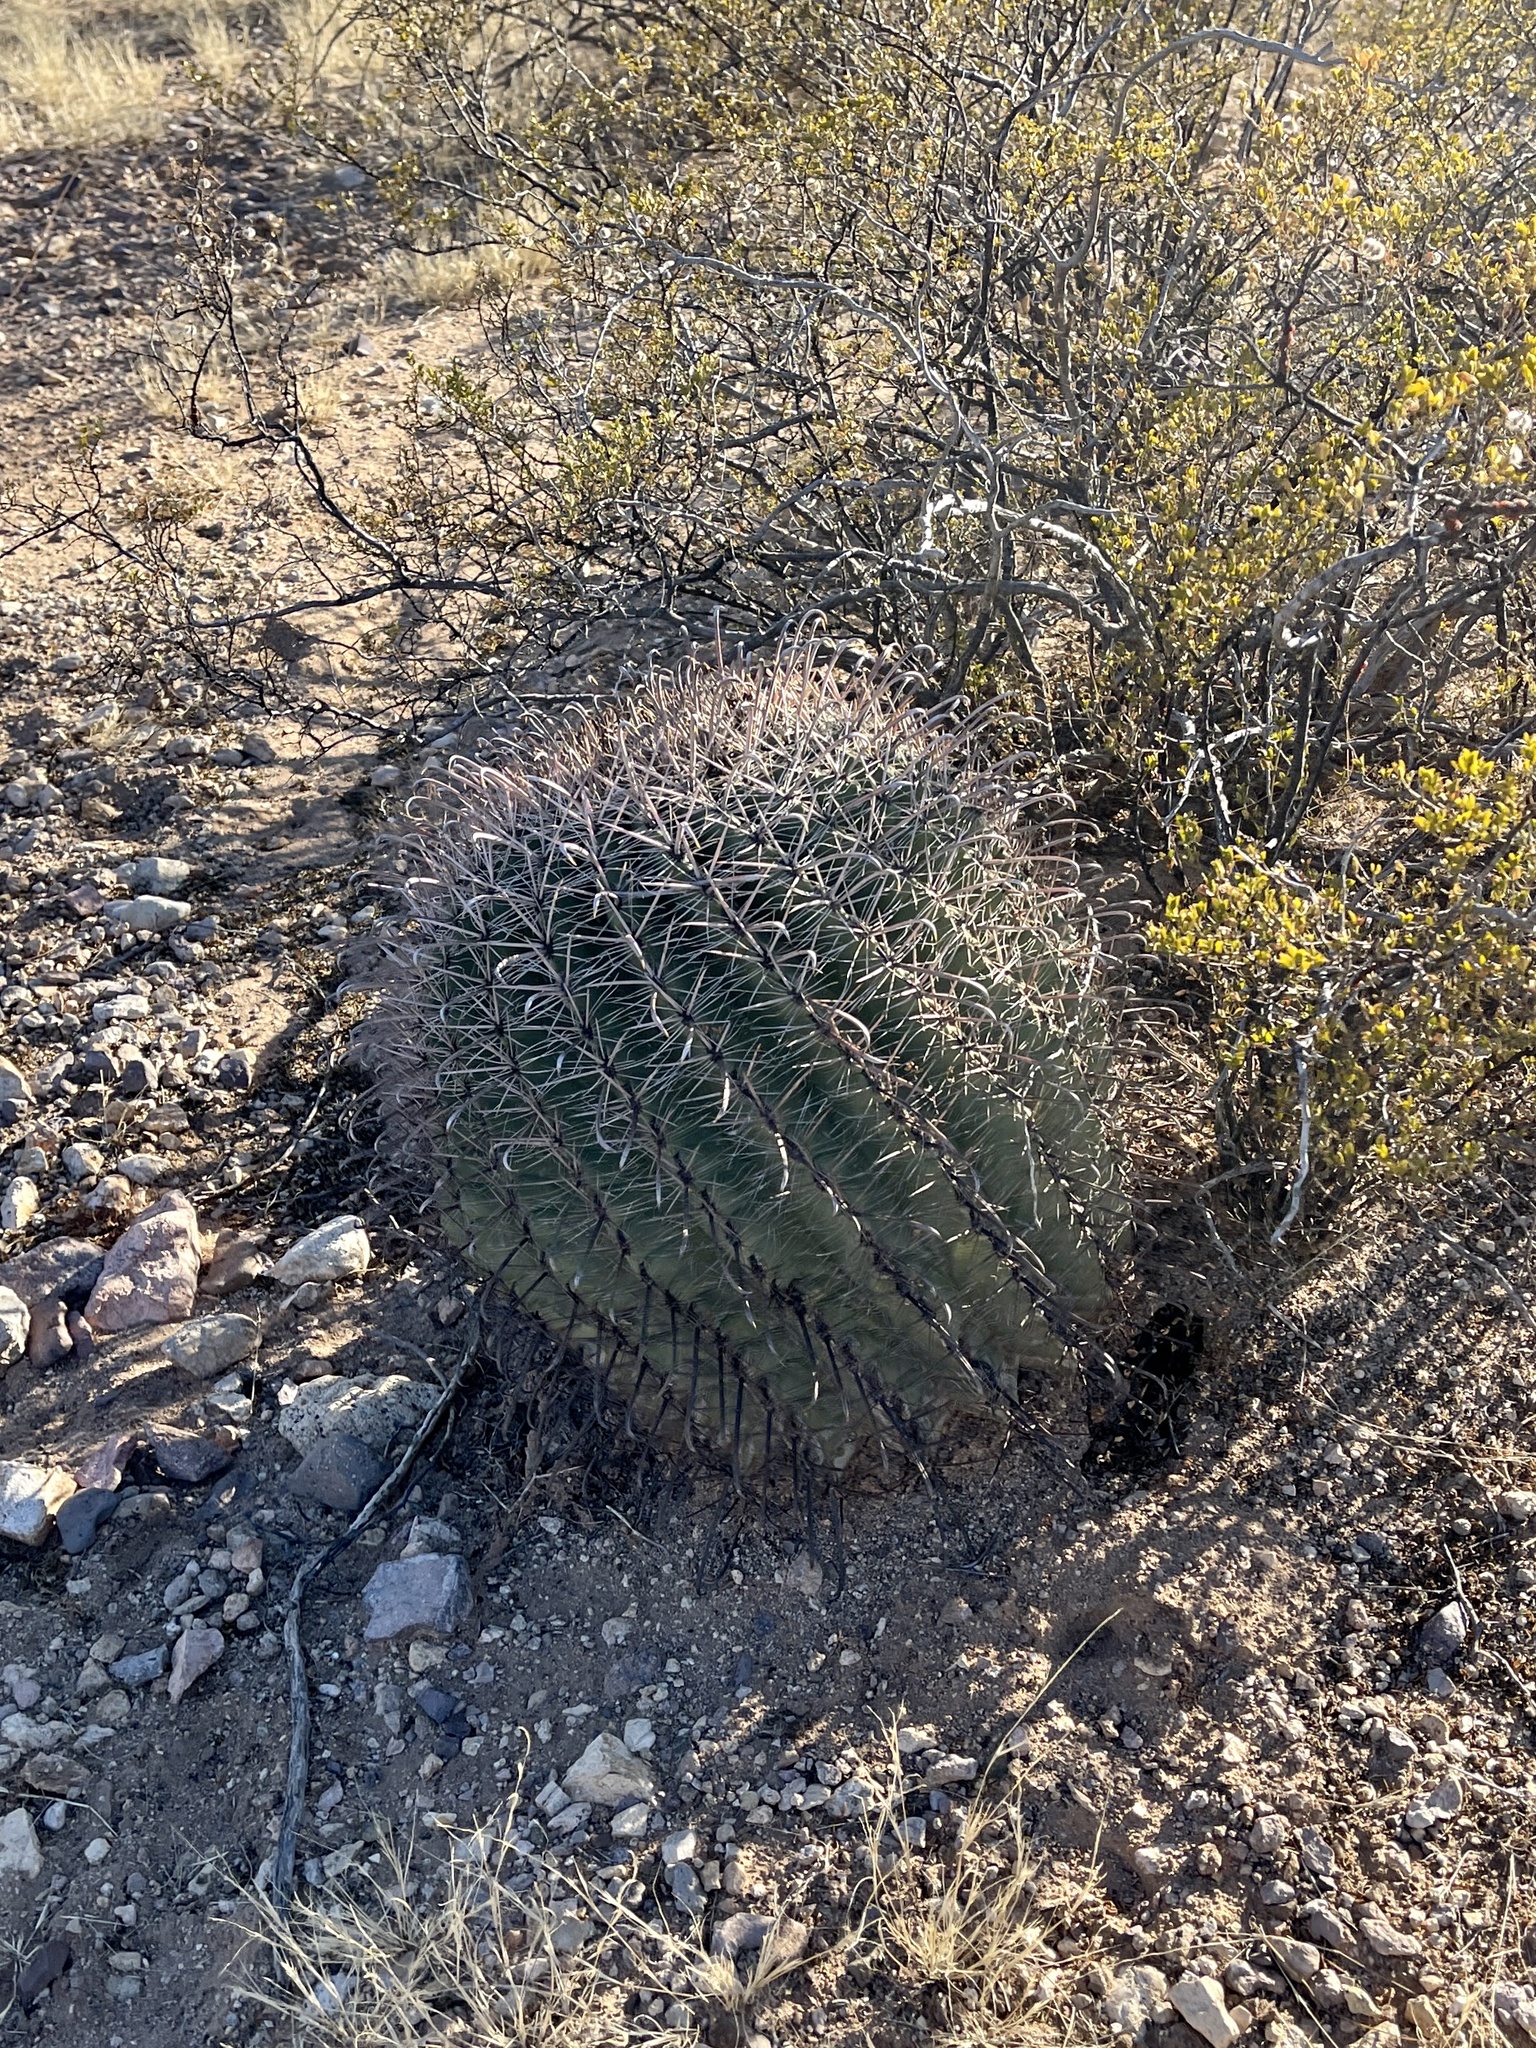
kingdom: Plantae
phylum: Tracheophyta
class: Magnoliopsida
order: Caryophyllales
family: Cactaceae
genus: Ferocactus
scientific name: Ferocactus wislizeni
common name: Candy barrel cactus
